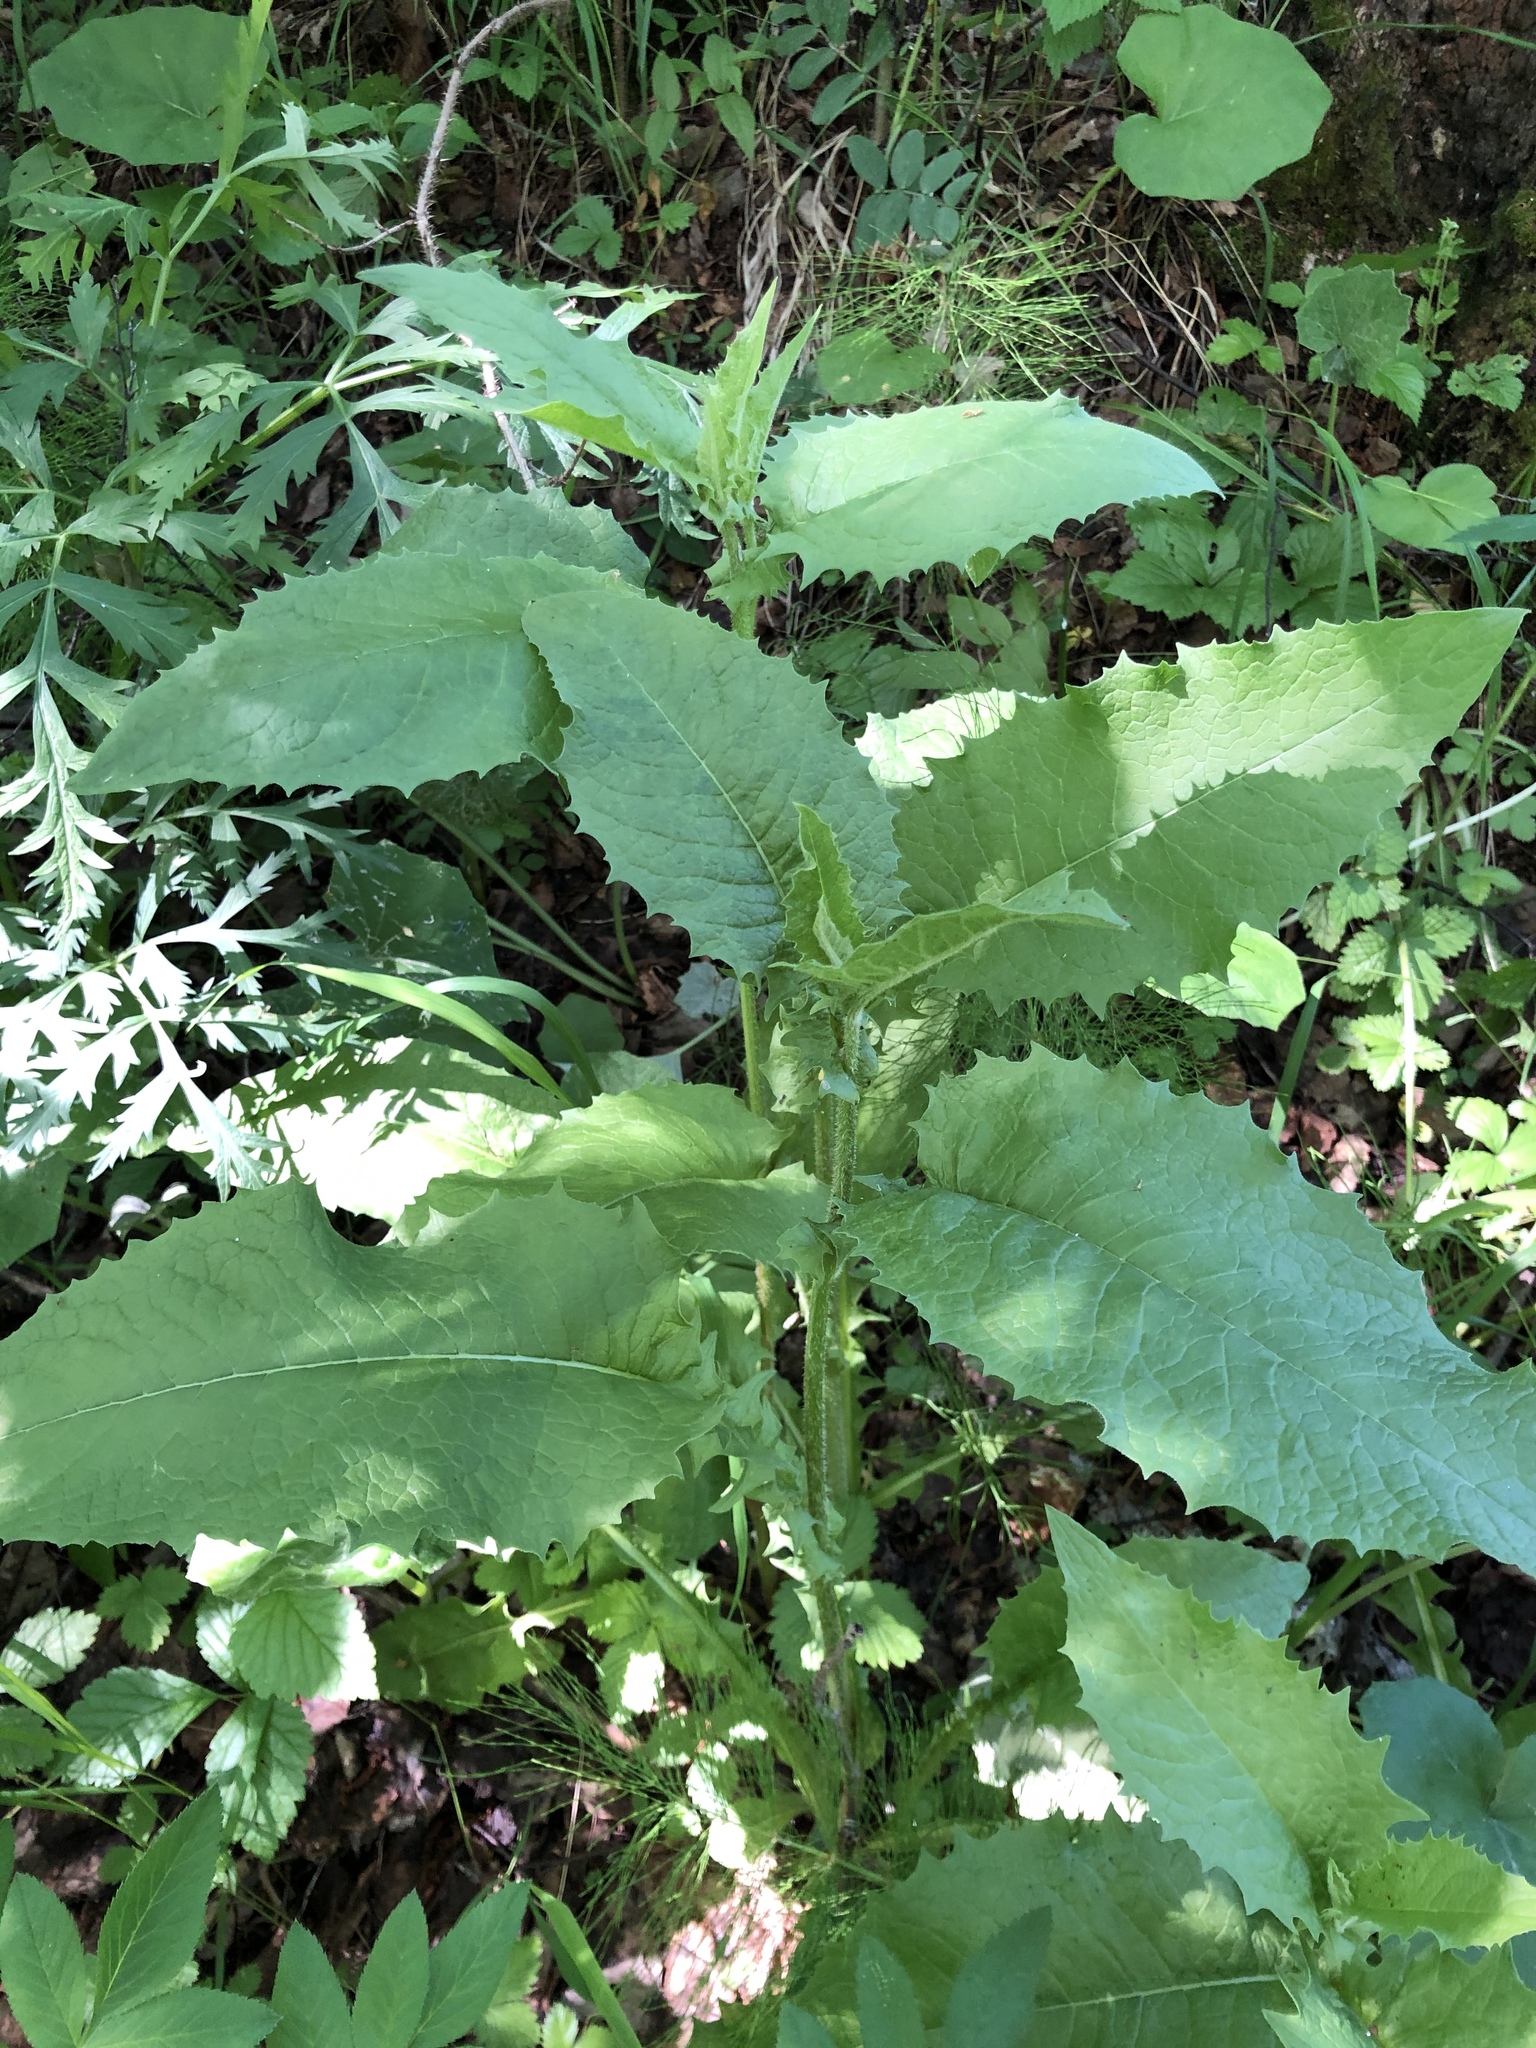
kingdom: Plantae
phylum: Tracheophyta
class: Magnoliopsida
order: Asterales
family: Asteraceae
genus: Crepis
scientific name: Crepis sibirica
